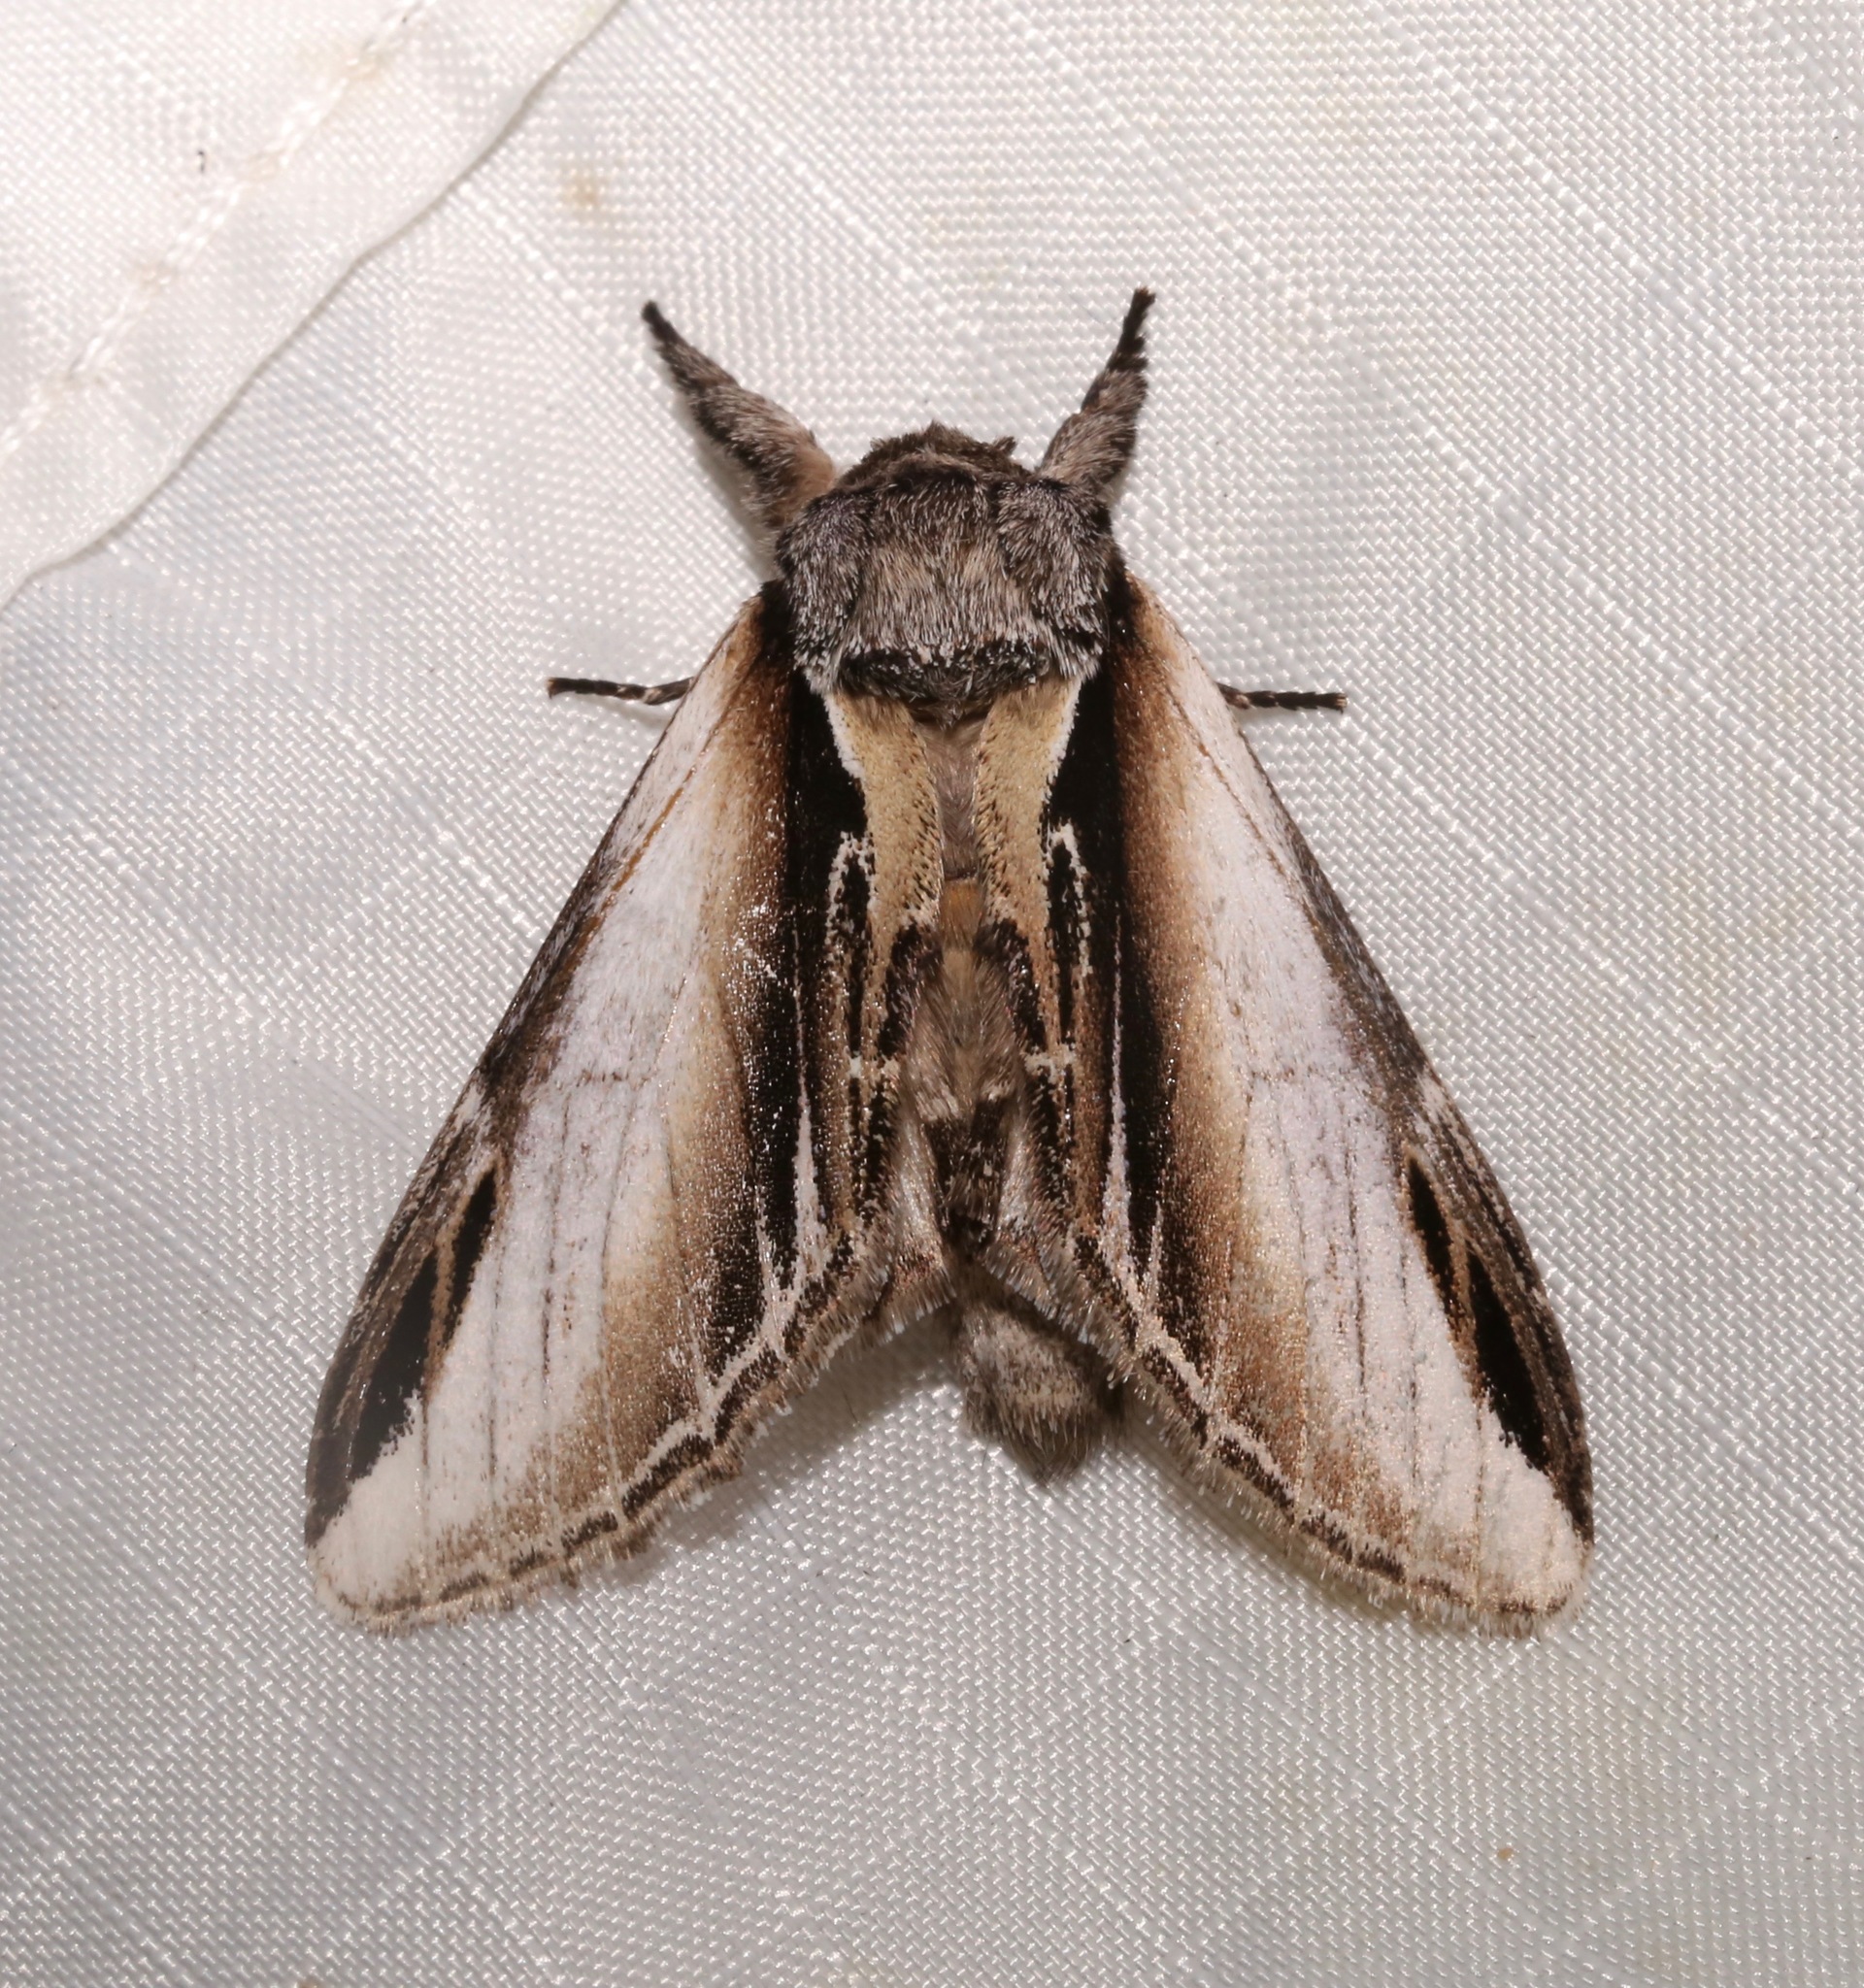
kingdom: Animalia
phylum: Arthropoda
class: Insecta
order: Lepidoptera
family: Notodontidae
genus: Pheosia
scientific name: Pheosia rimosa
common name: Black-rimmed prominent
